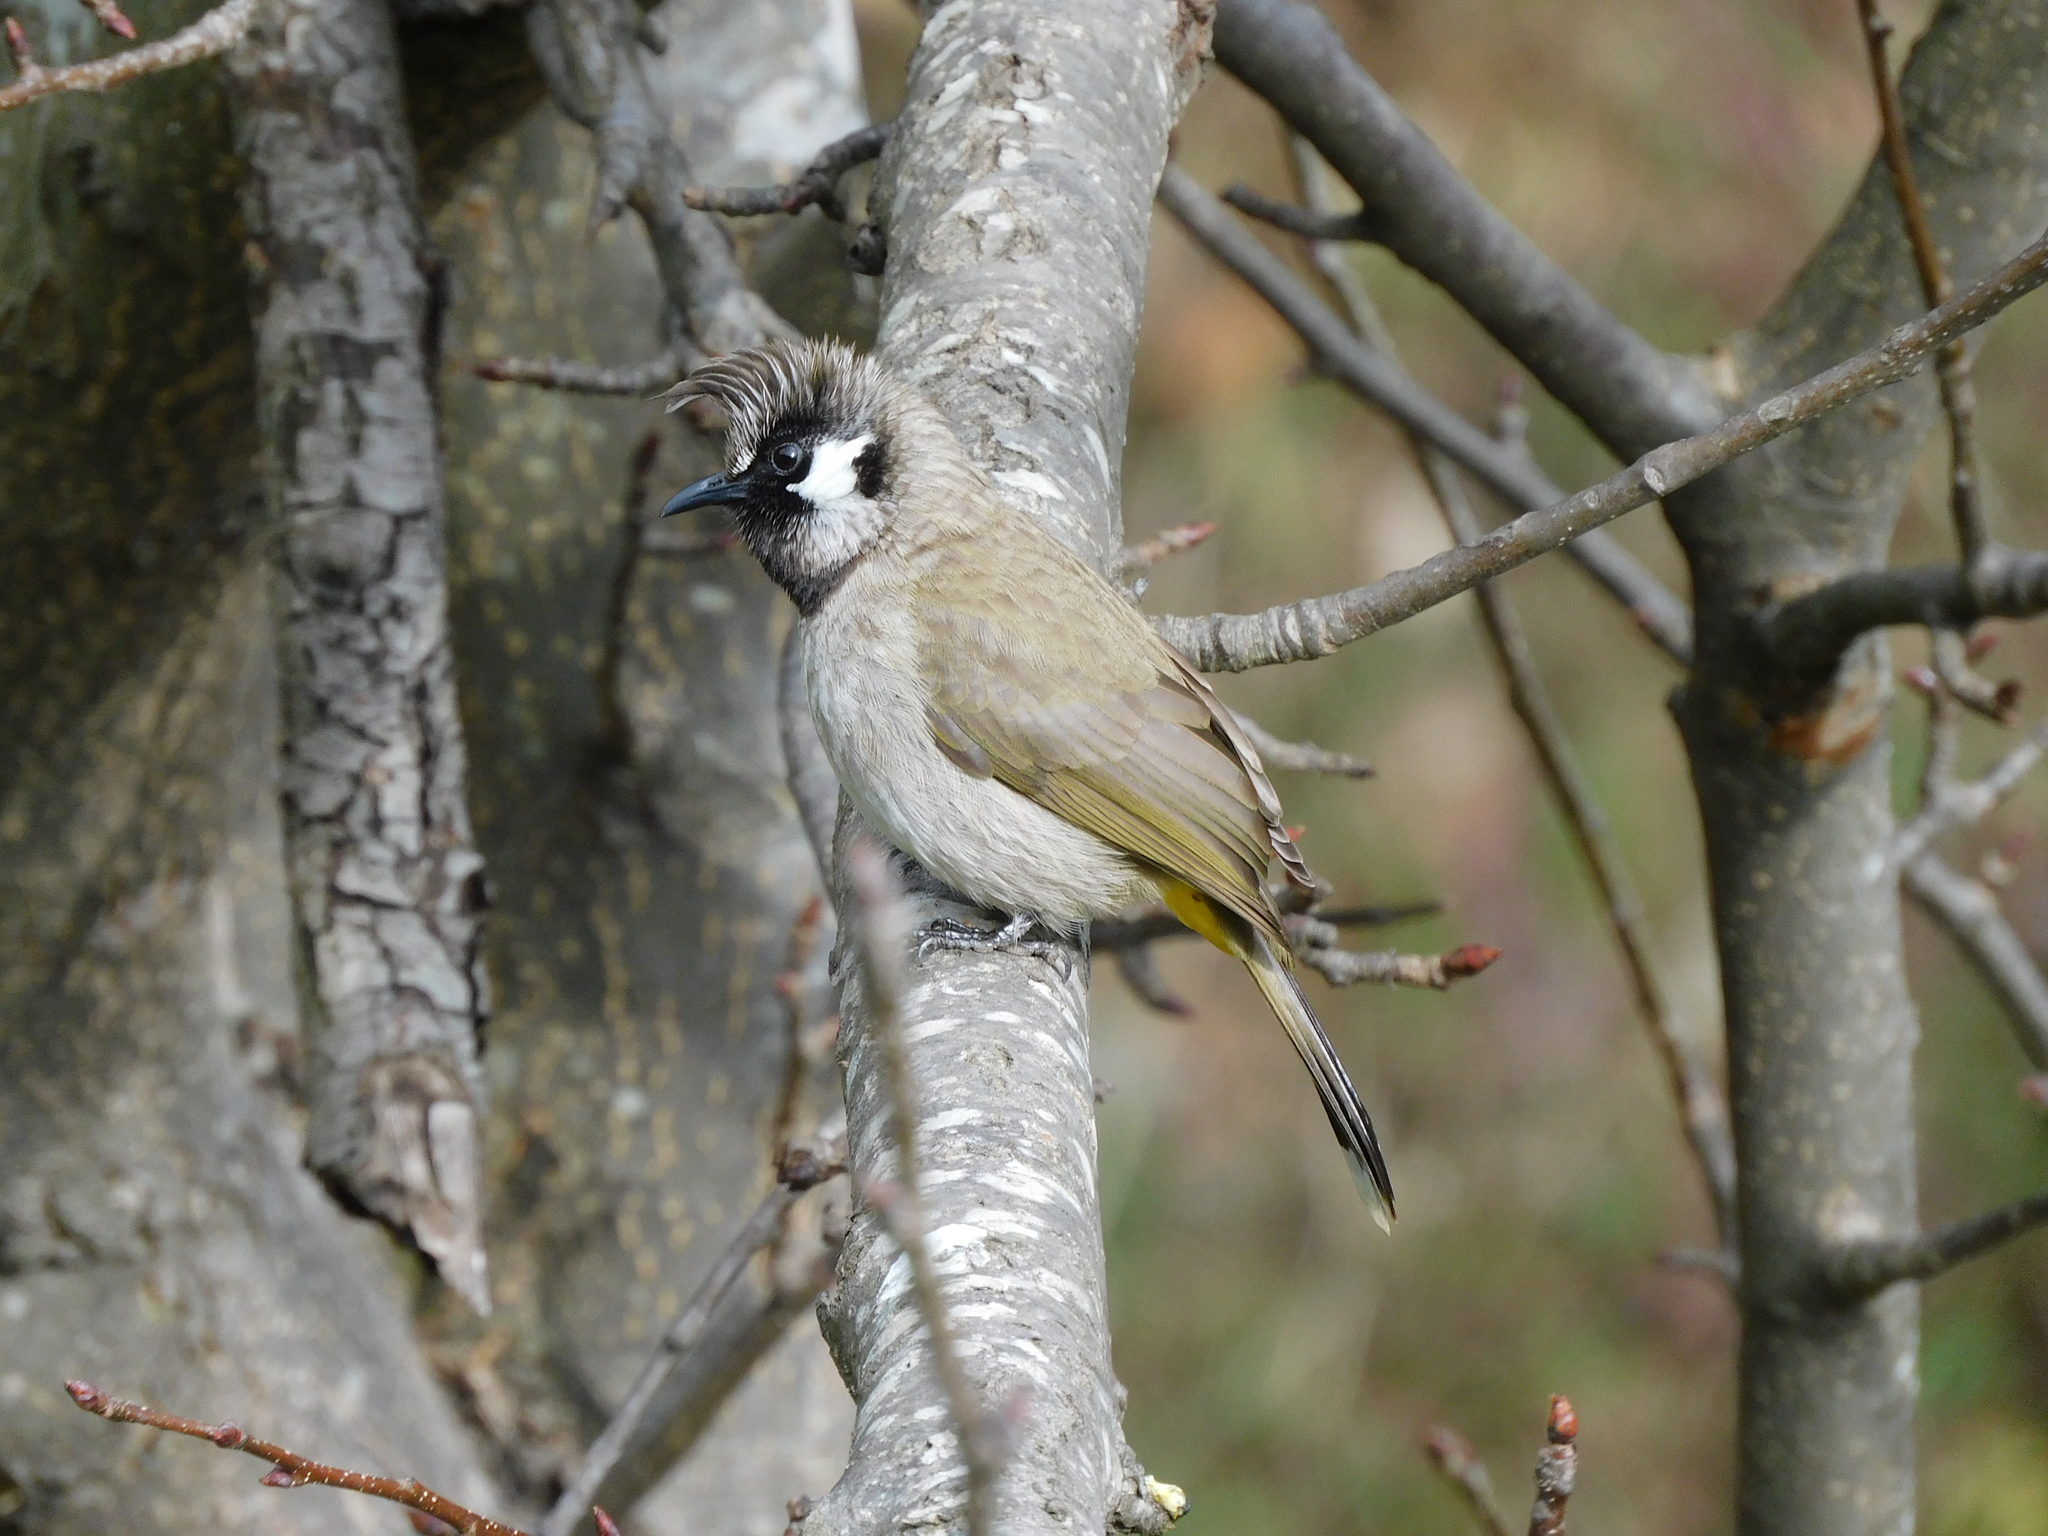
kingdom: Animalia
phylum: Chordata
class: Aves
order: Passeriformes
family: Pycnonotidae
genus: Pycnonotus
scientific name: Pycnonotus leucogenys
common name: Himalayan bulbul
